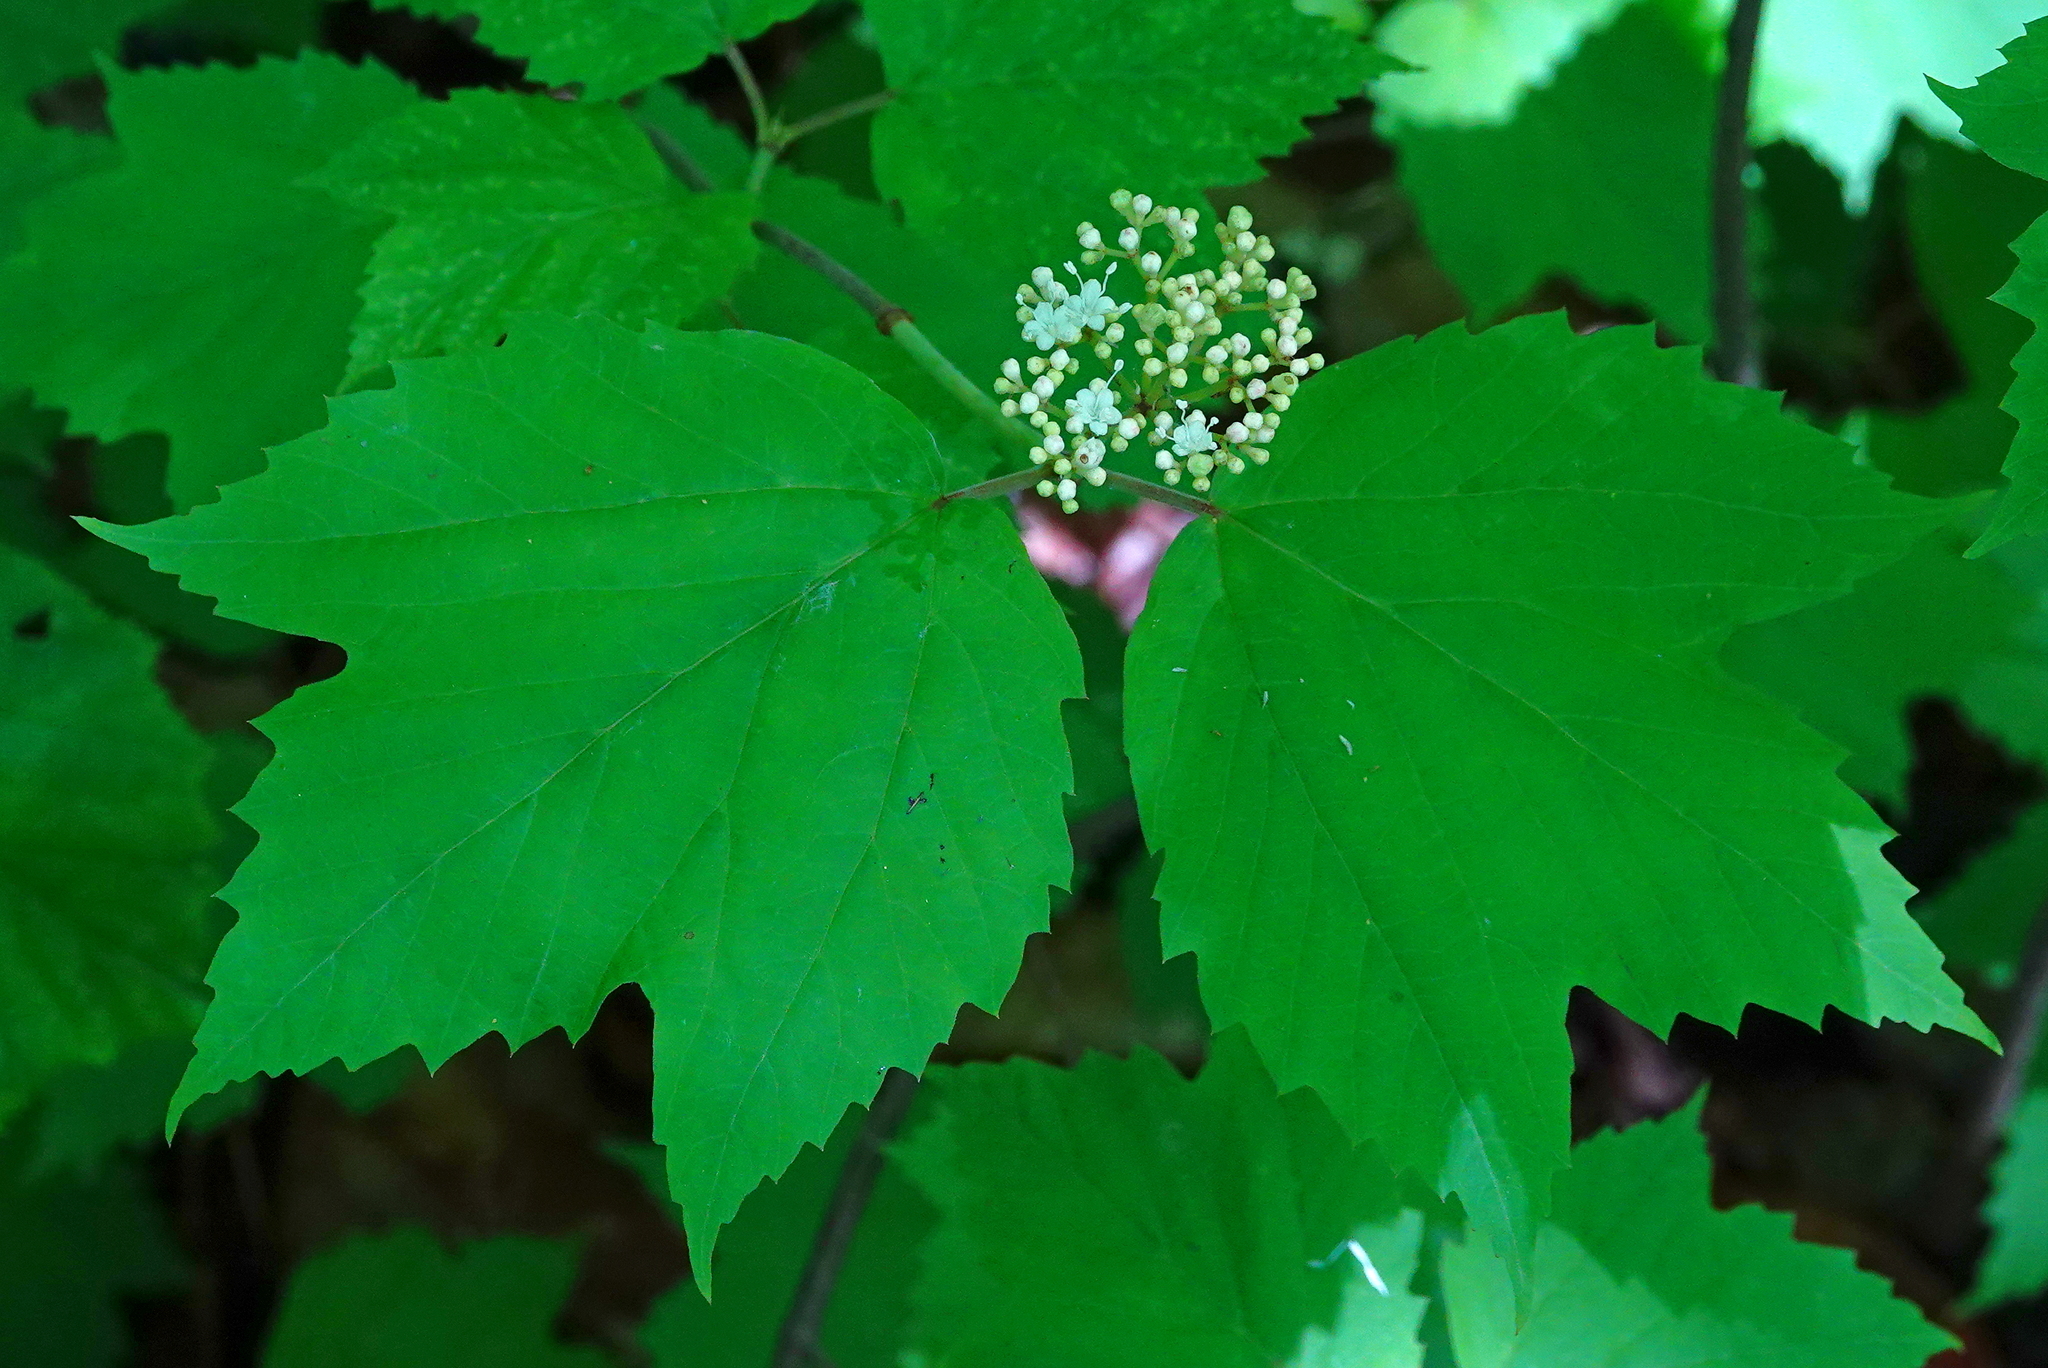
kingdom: Plantae
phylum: Tracheophyta
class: Magnoliopsida
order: Dipsacales
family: Viburnaceae
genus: Viburnum
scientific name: Viburnum acerifolium
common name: Dockmackie
